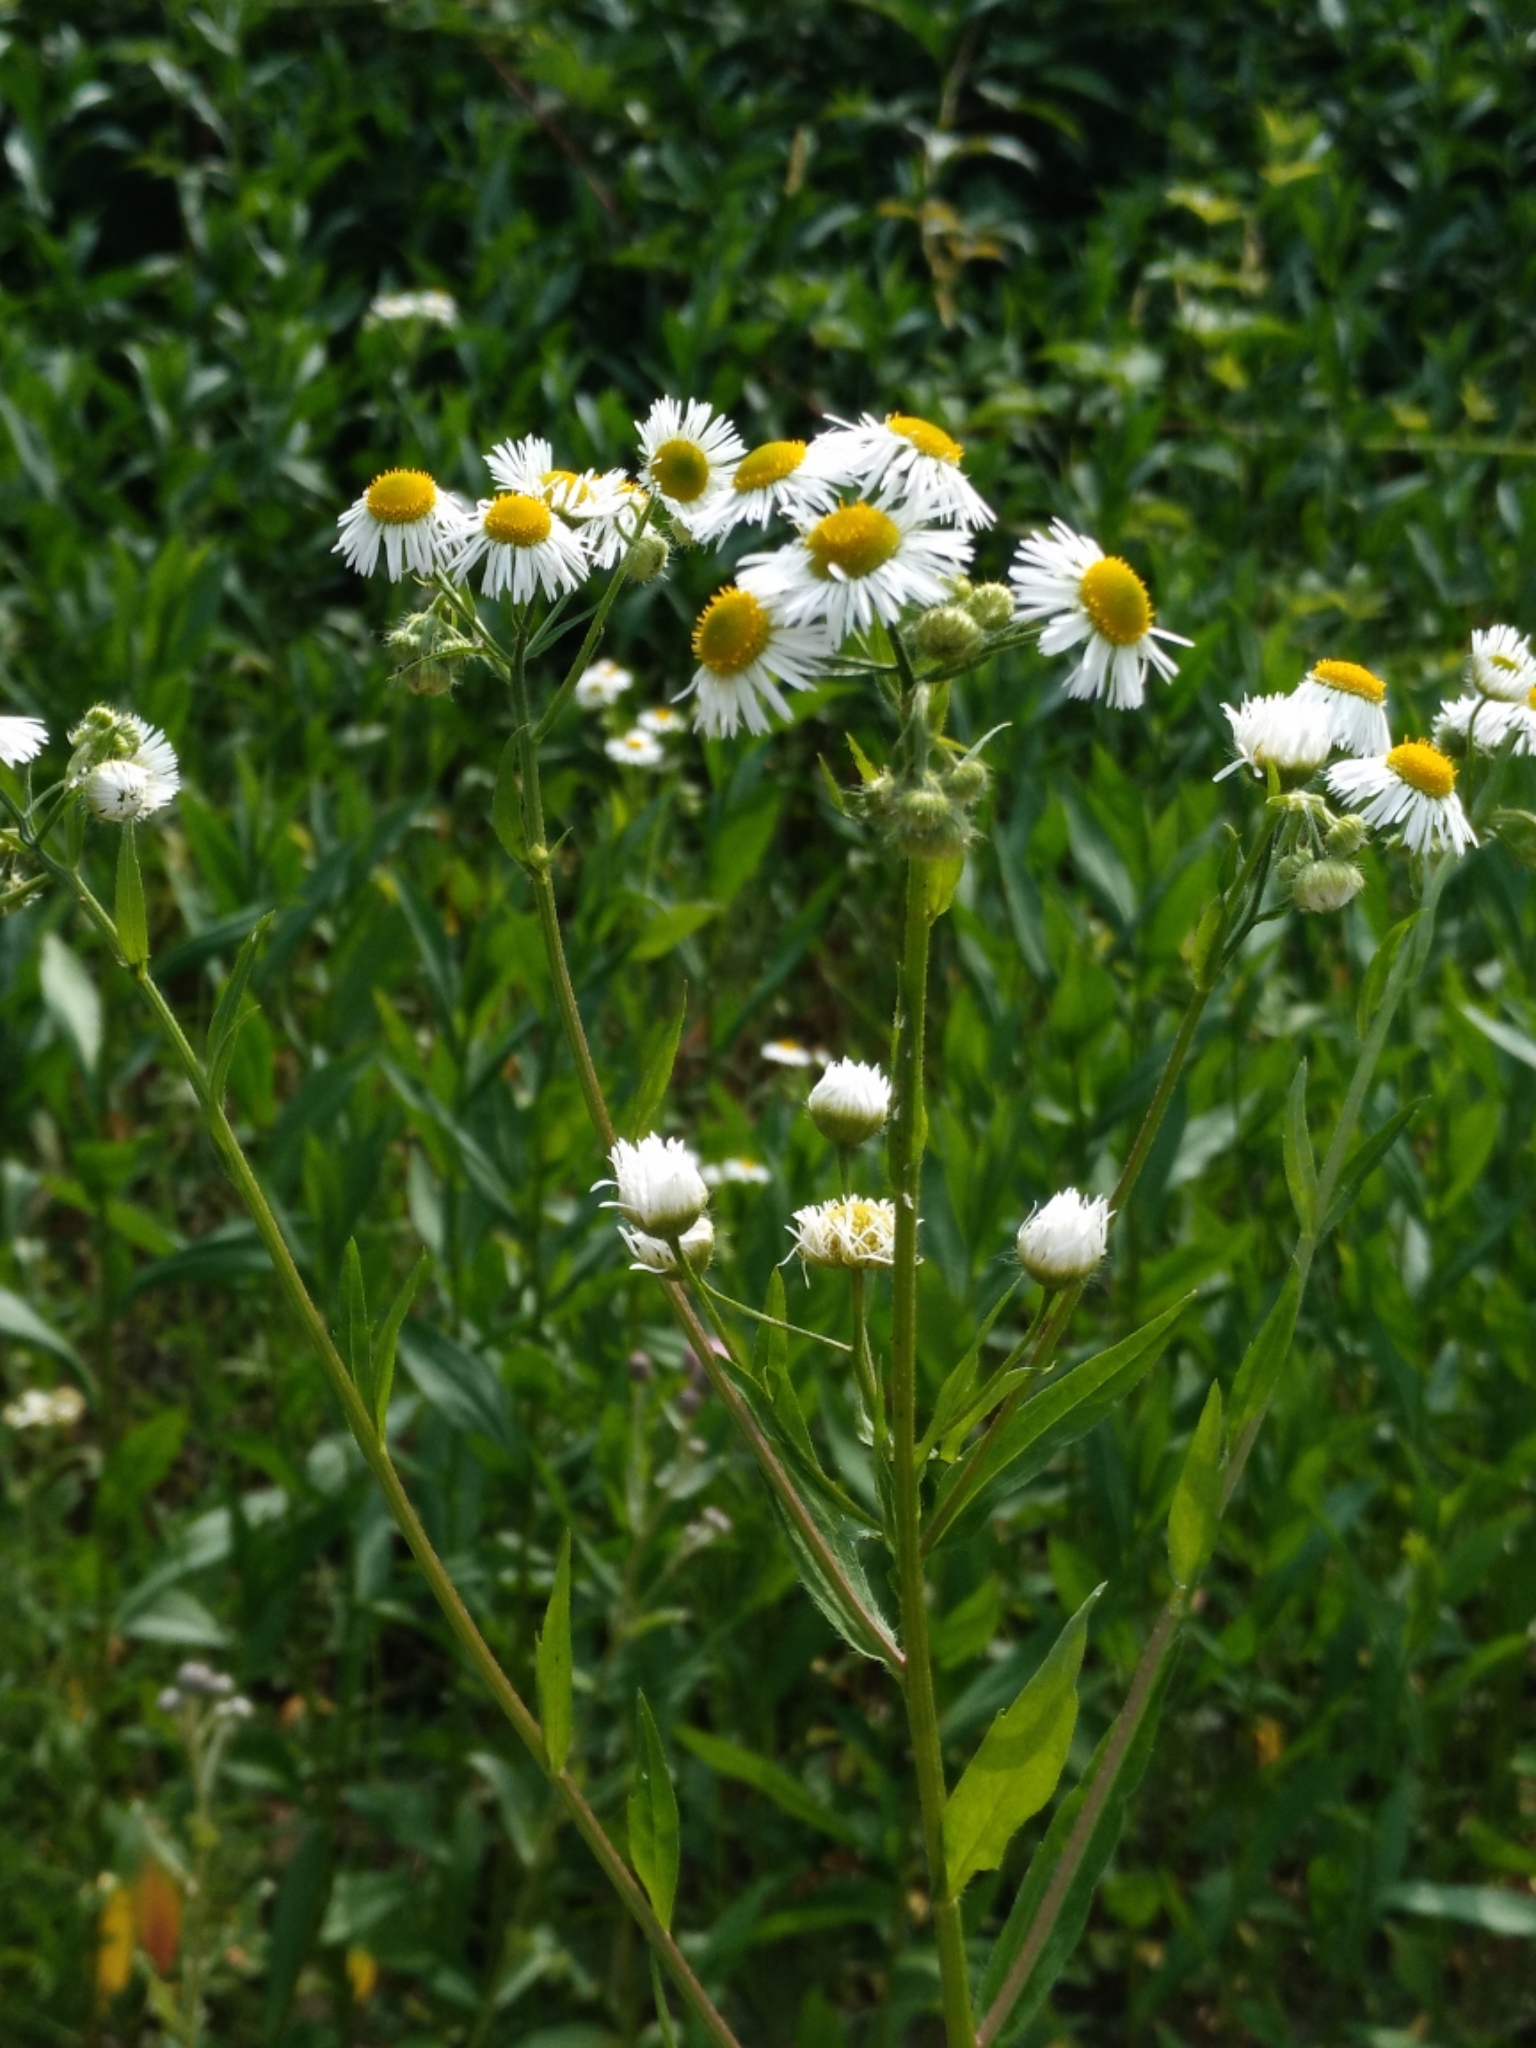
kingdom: Plantae
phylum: Tracheophyta
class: Magnoliopsida
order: Asterales
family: Asteraceae
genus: Erigeron
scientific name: Erigeron annuus
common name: Tall fleabane
